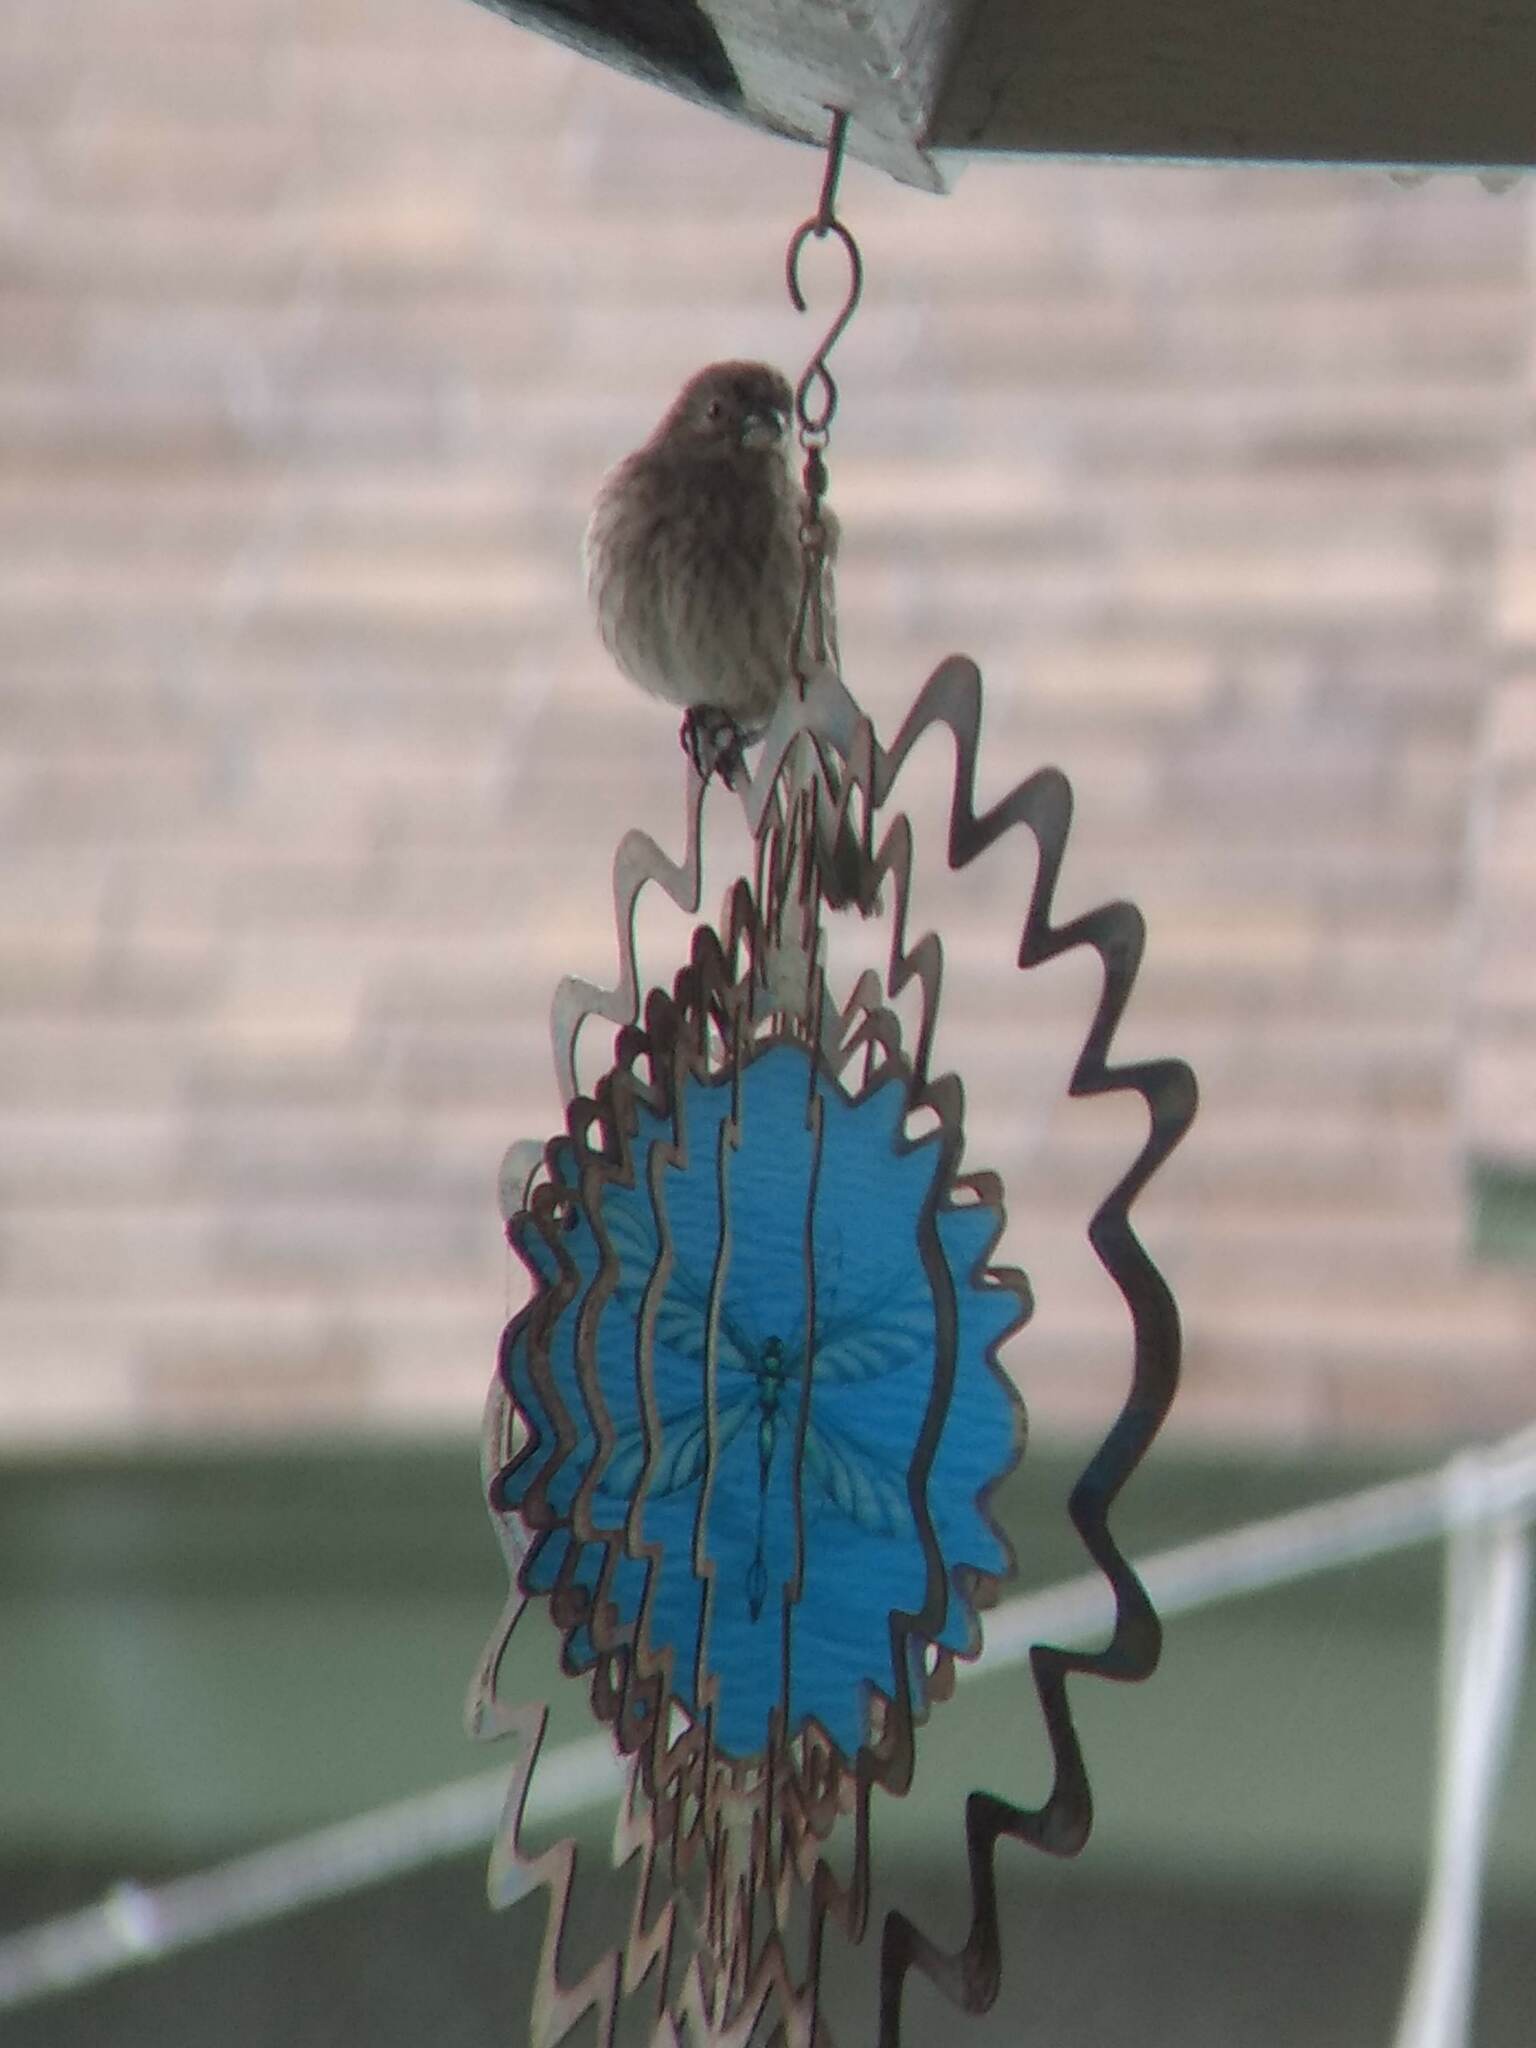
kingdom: Animalia
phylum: Chordata
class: Aves
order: Passeriformes
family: Fringillidae
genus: Haemorhous
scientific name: Haemorhous mexicanus
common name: House finch
